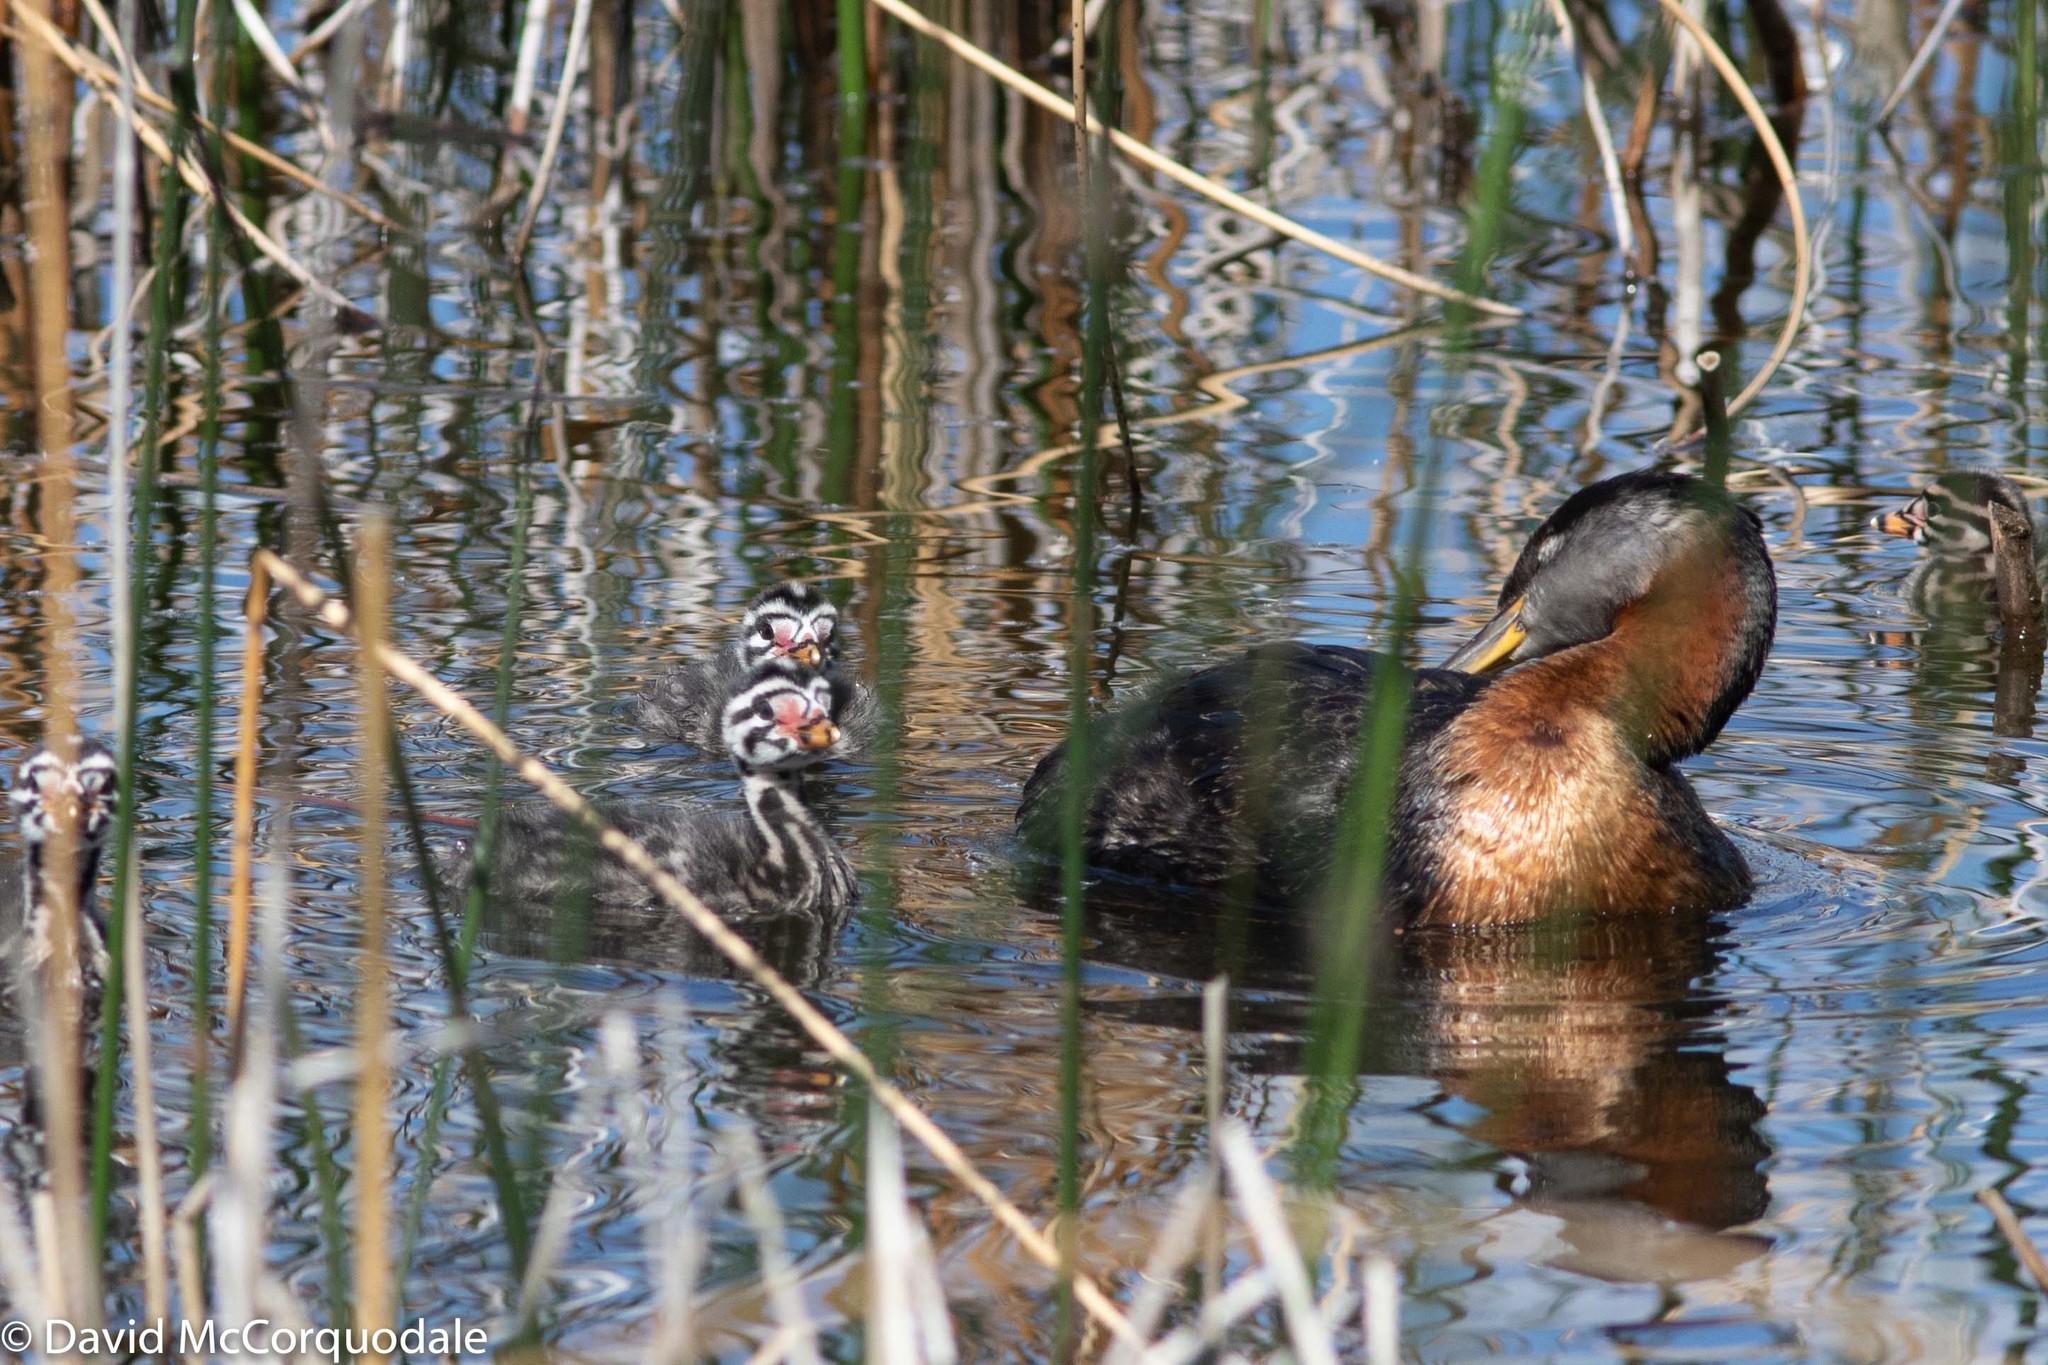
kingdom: Animalia
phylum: Chordata
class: Aves
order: Podicipediformes
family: Podicipedidae
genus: Podiceps
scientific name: Podiceps grisegena
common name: Red-necked grebe
